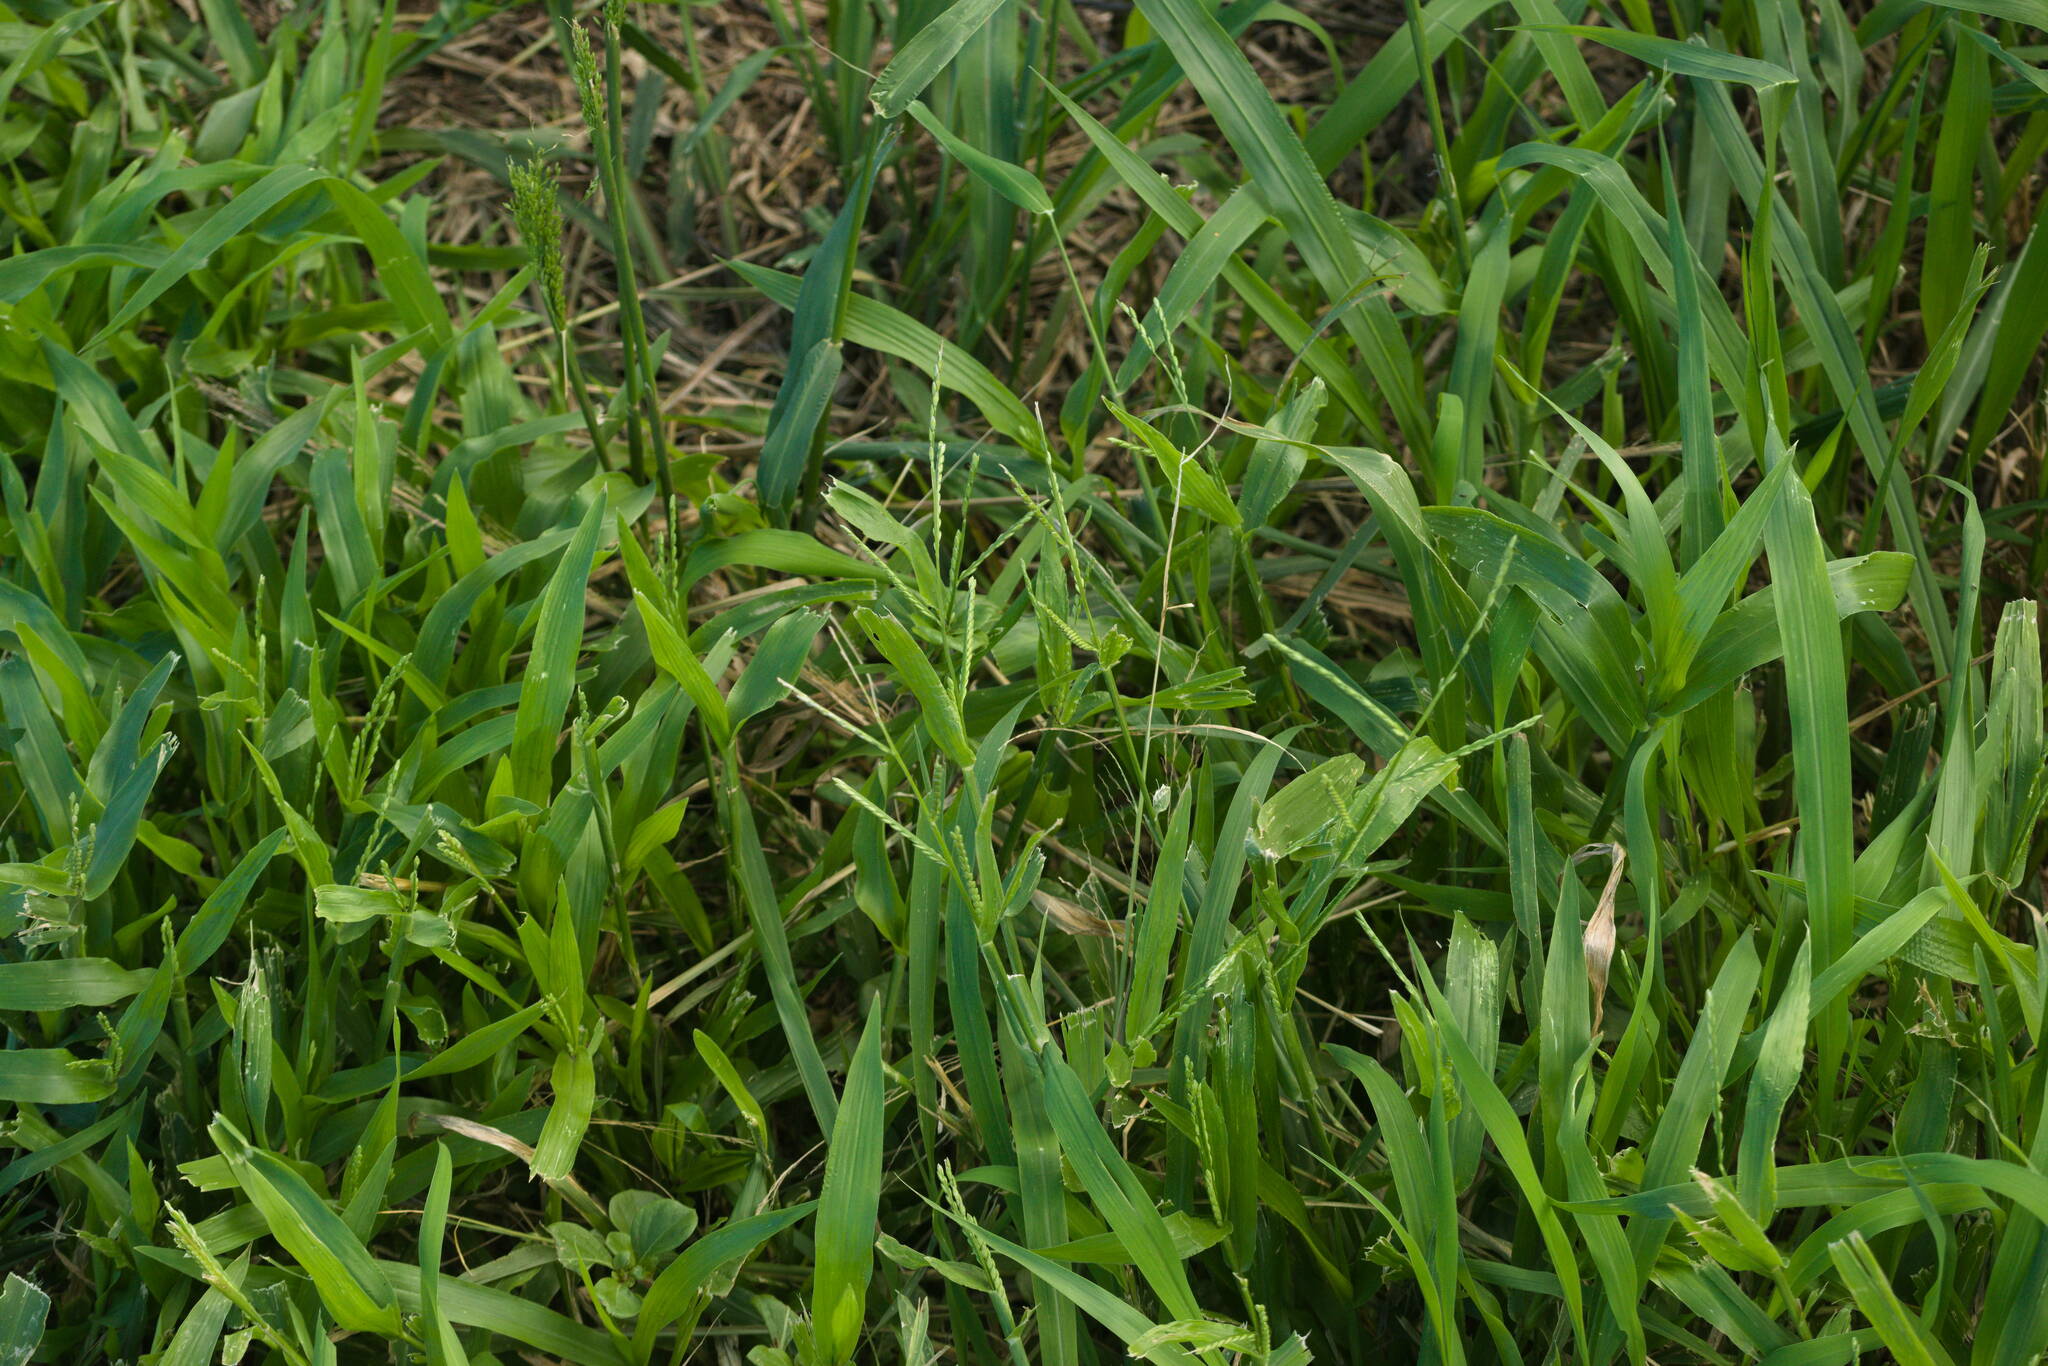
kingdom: Plantae
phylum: Tracheophyta
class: Liliopsida
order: Poales
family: Poaceae
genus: Urochloa
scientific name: Urochloa plantaginea
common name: Plantain signalgrass
